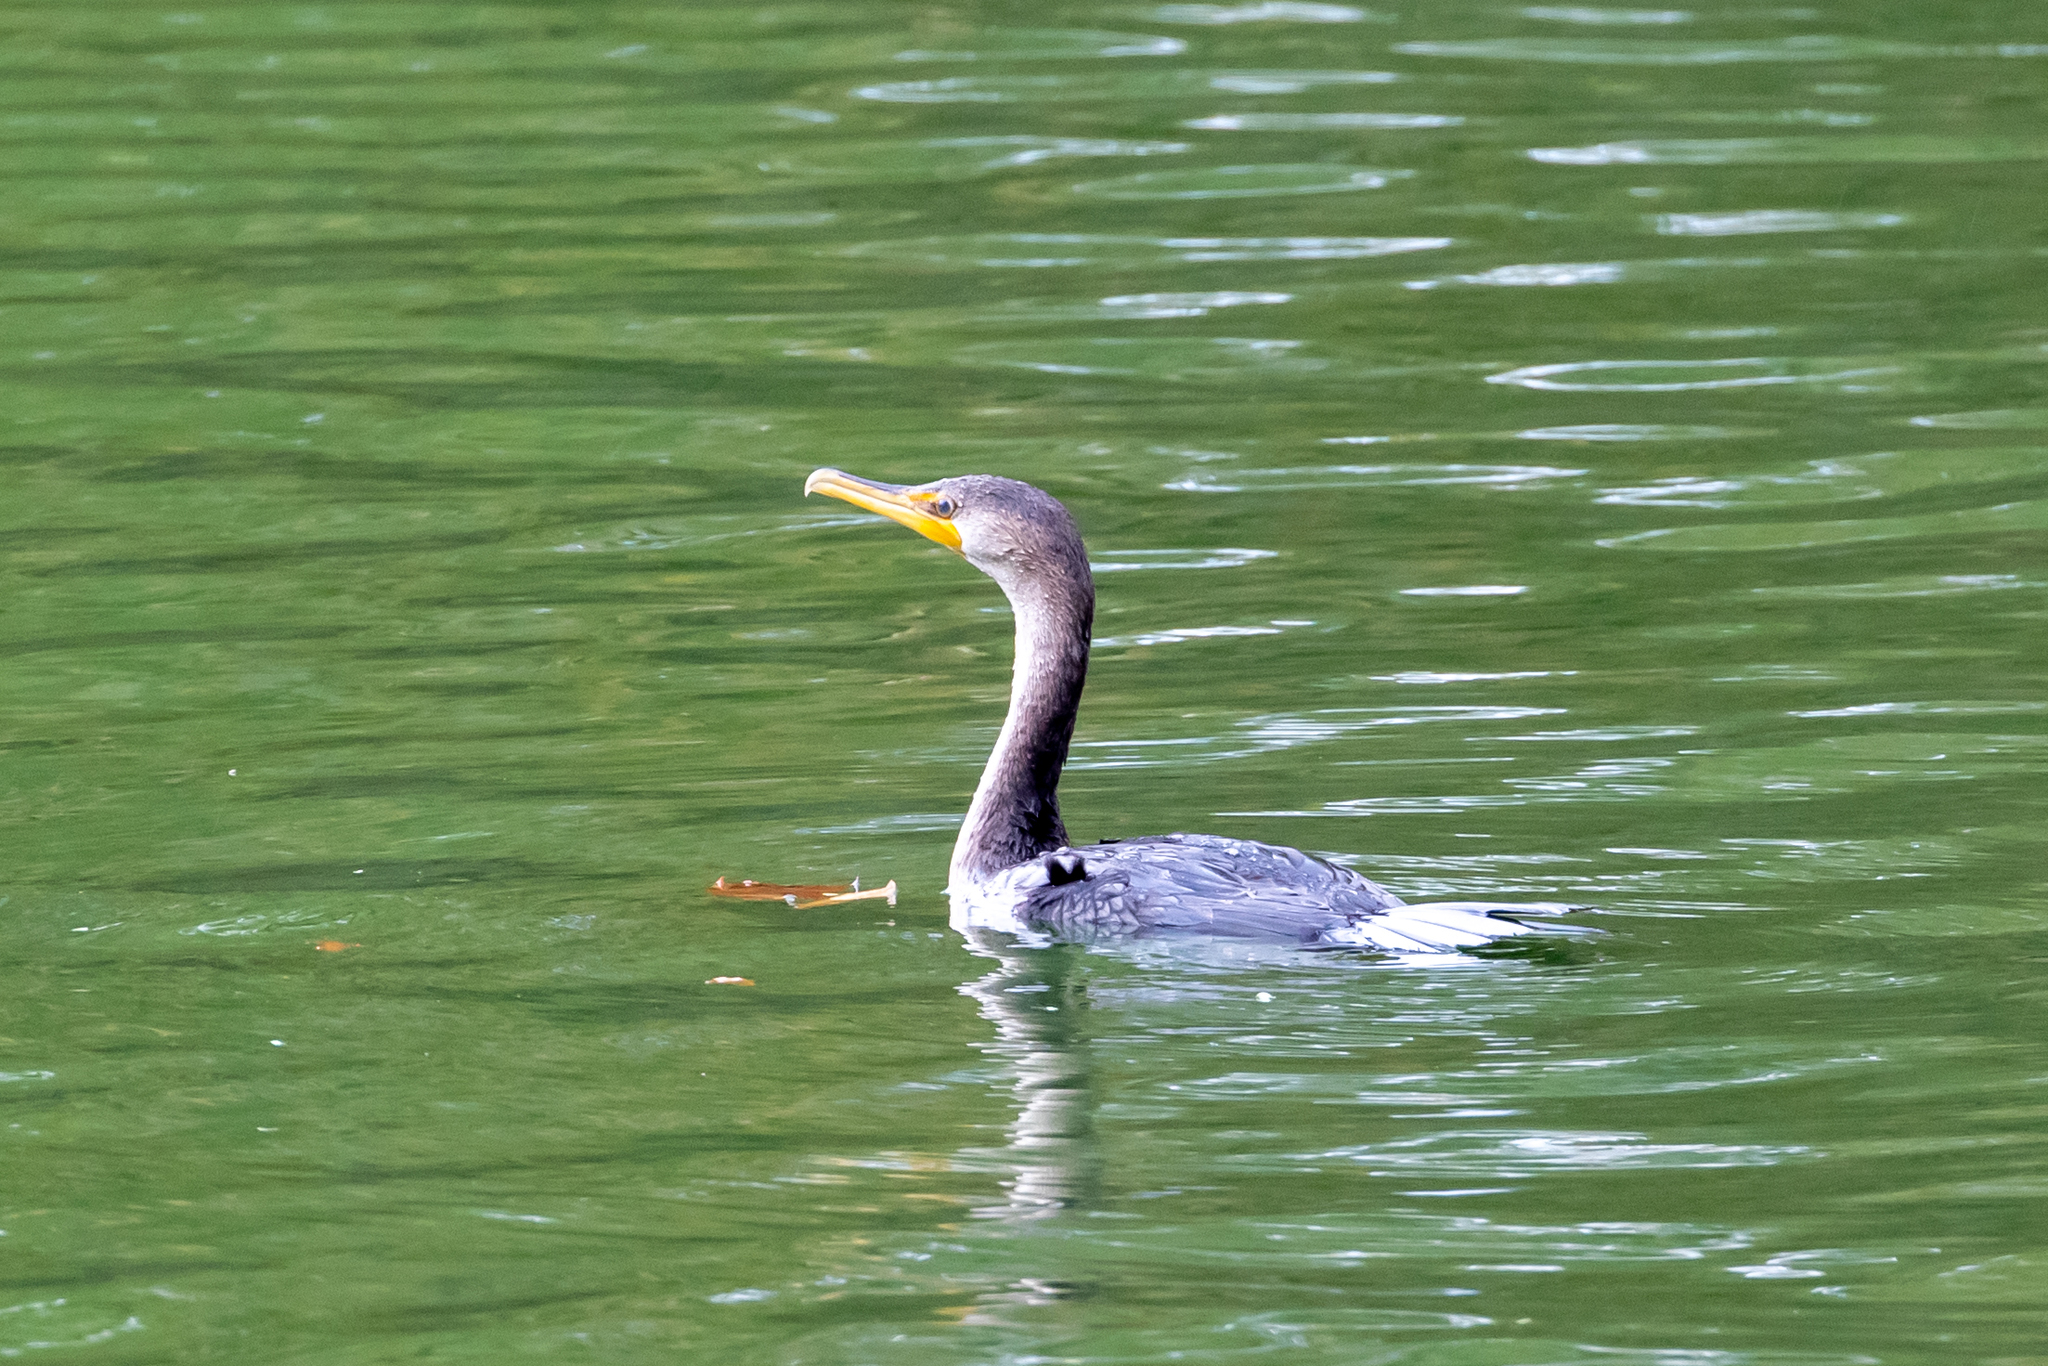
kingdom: Animalia
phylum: Chordata
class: Aves
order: Suliformes
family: Phalacrocoracidae
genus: Phalacrocorax
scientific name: Phalacrocorax auritus
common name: Double-crested cormorant
